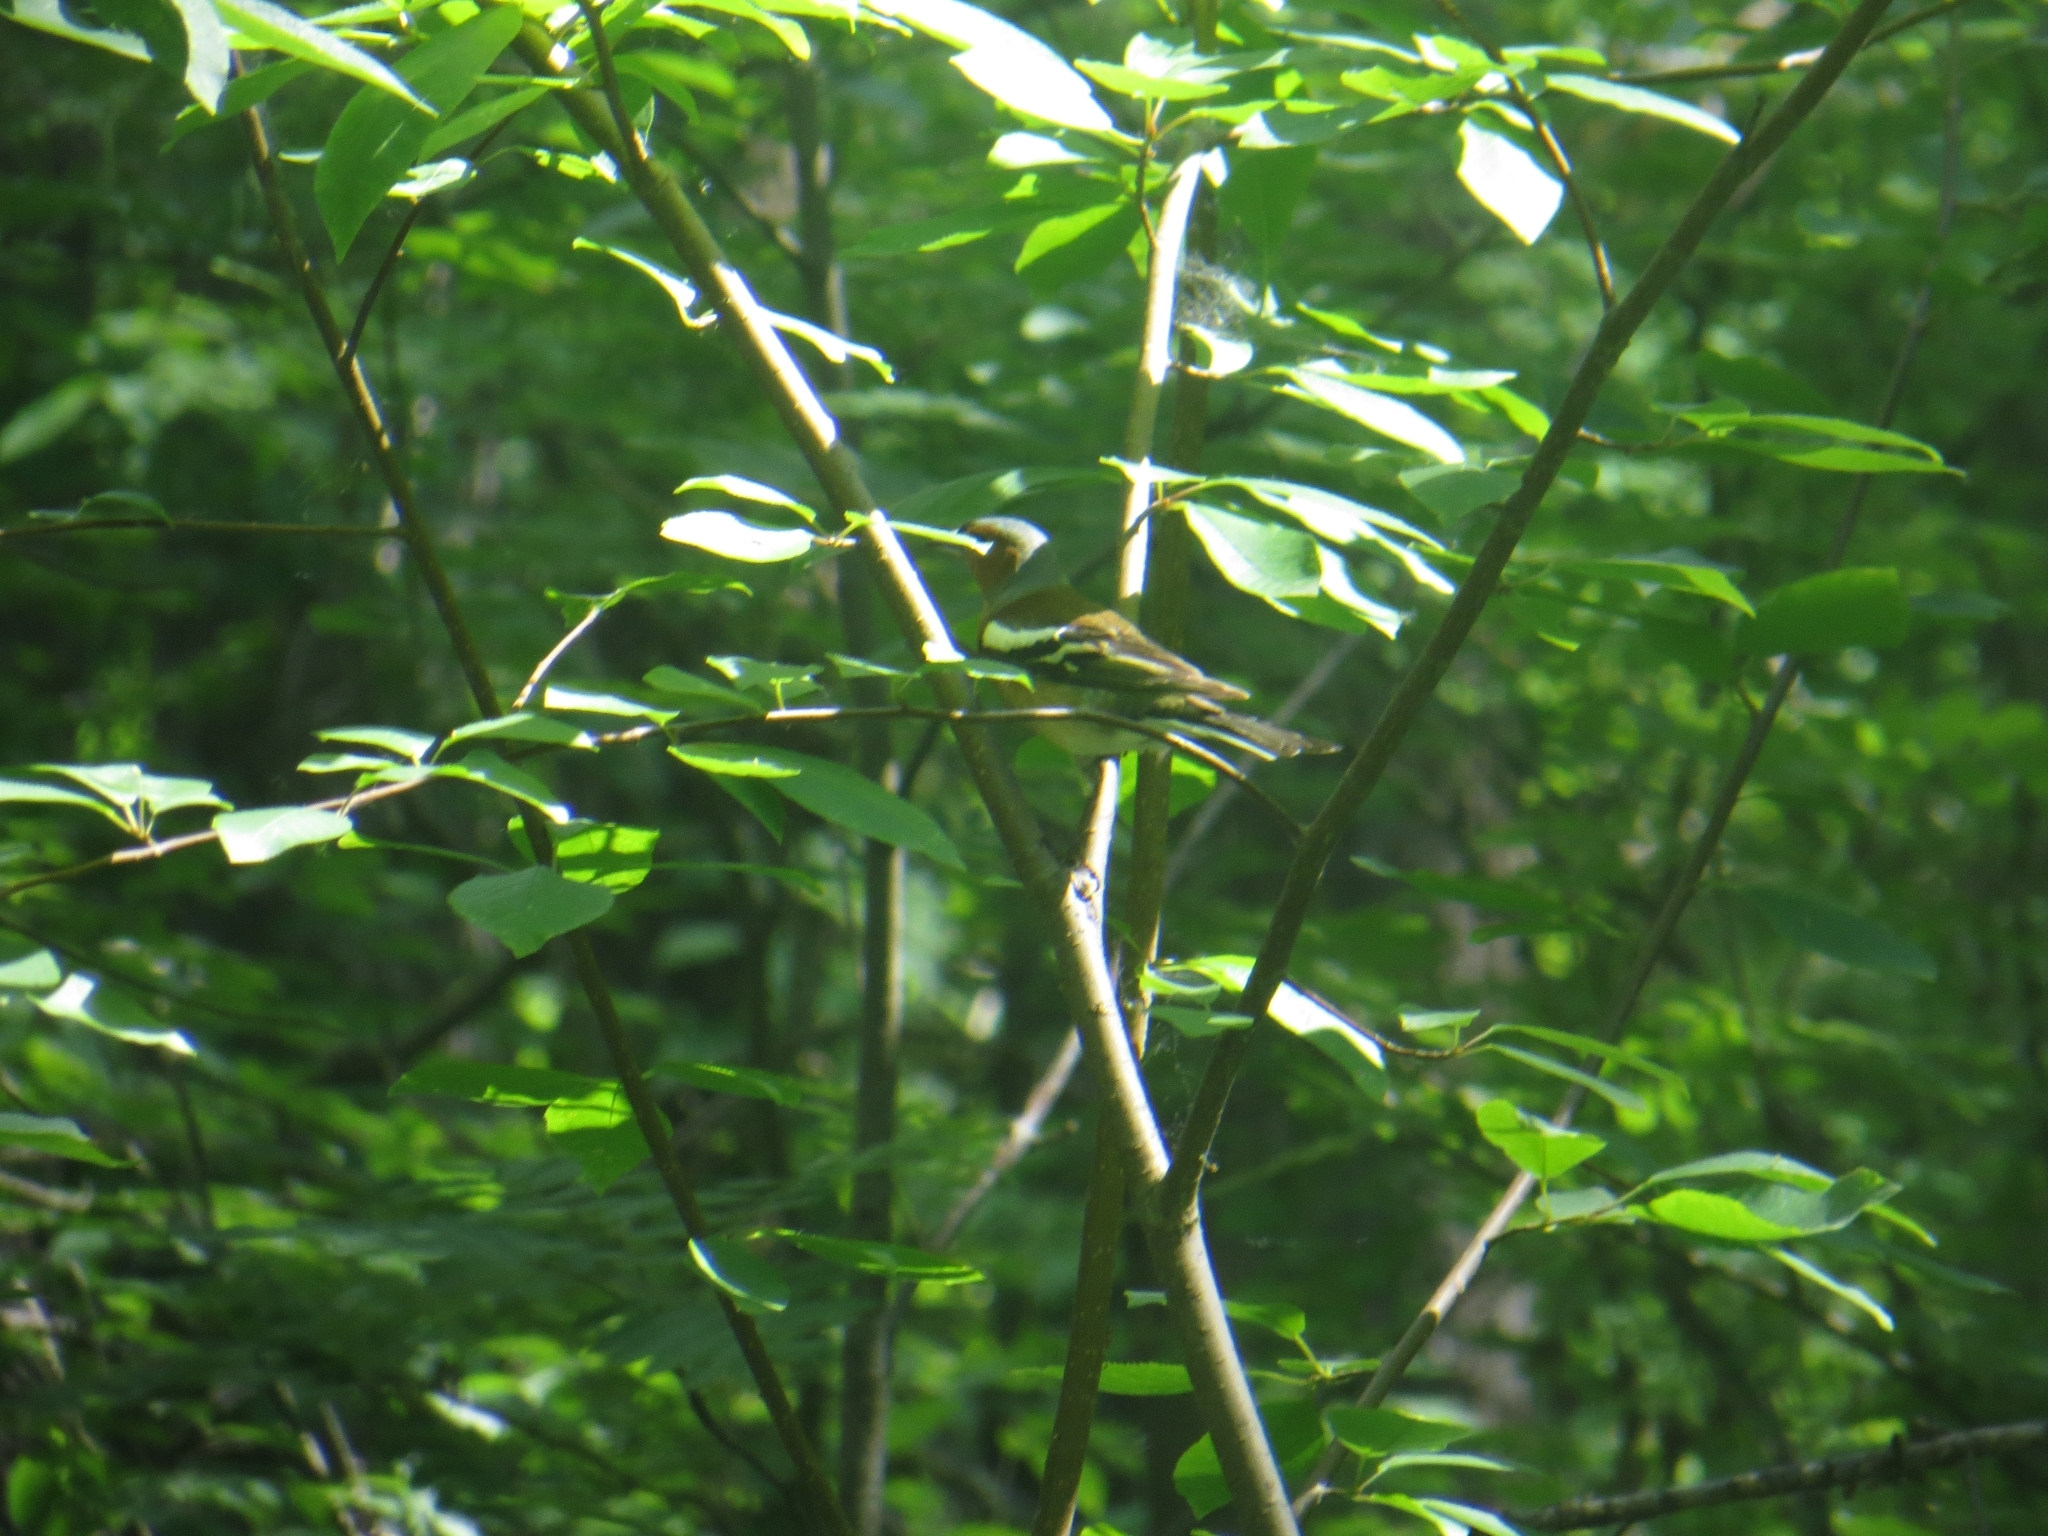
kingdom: Animalia
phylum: Chordata
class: Aves
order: Passeriformes
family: Fringillidae
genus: Fringilla
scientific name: Fringilla coelebs
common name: Common chaffinch
